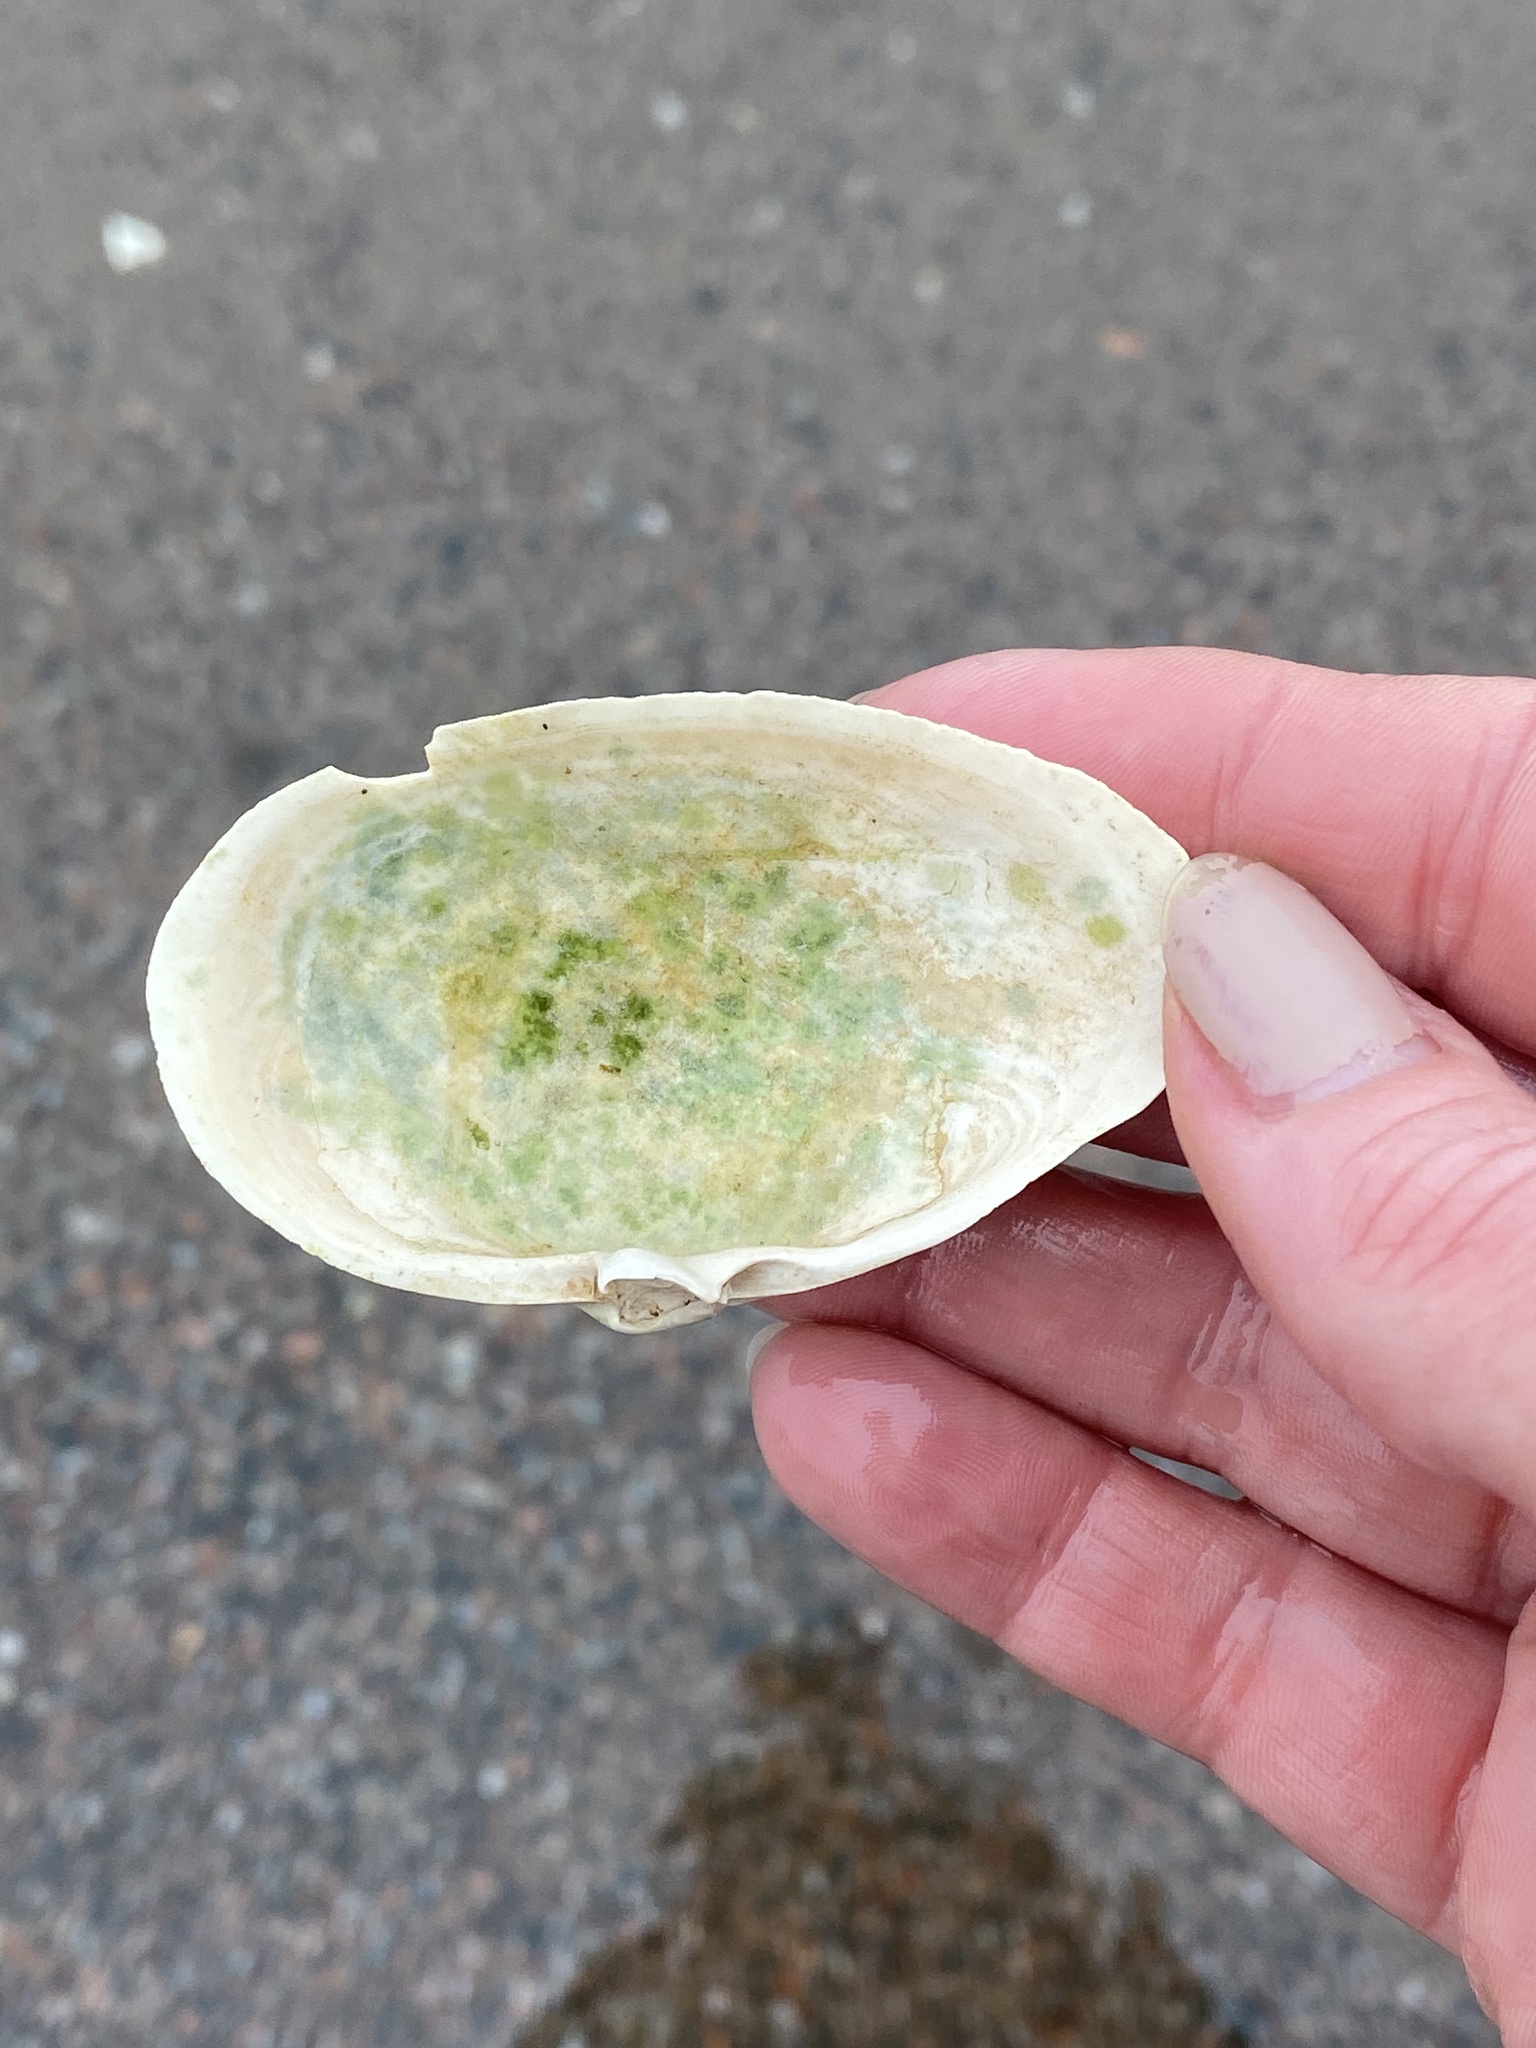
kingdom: Animalia
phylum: Mollusca
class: Bivalvia
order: Myida
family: Myidae
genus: Mya
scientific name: Mya arenaria
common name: Soft-shelled clam
